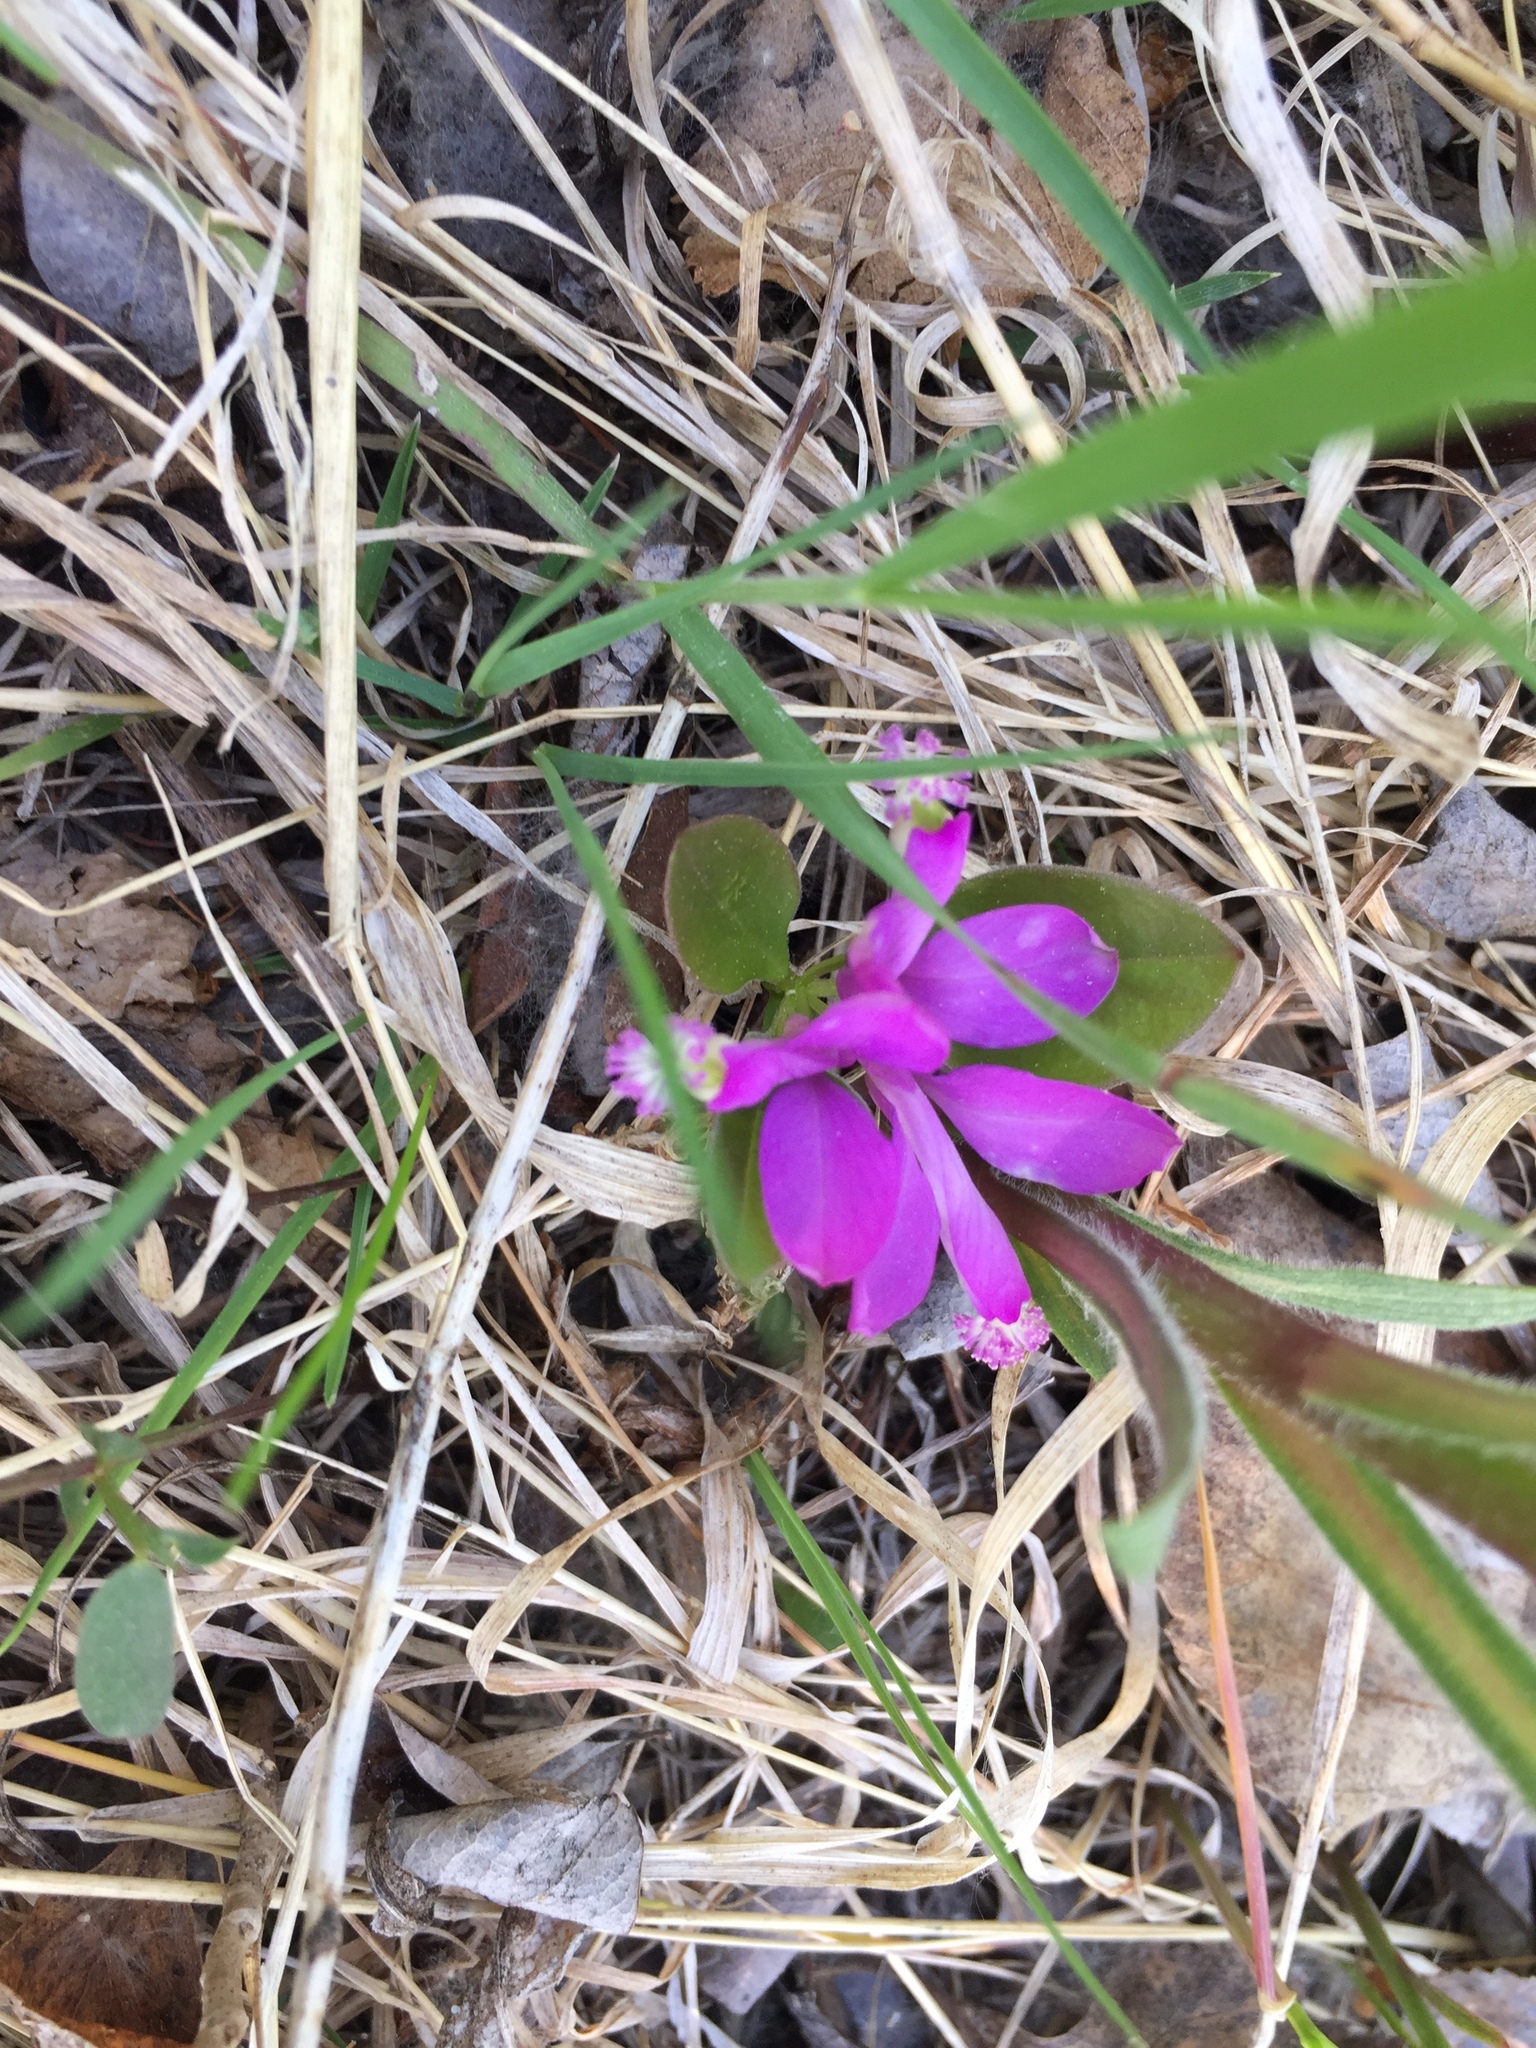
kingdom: Plantae
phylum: Tracheophyta
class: Magnoliopsida
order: Fabales
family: Polygalaceae
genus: Polygaloides
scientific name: Polygaloides paucifolia
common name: Bird-on-the-wing
